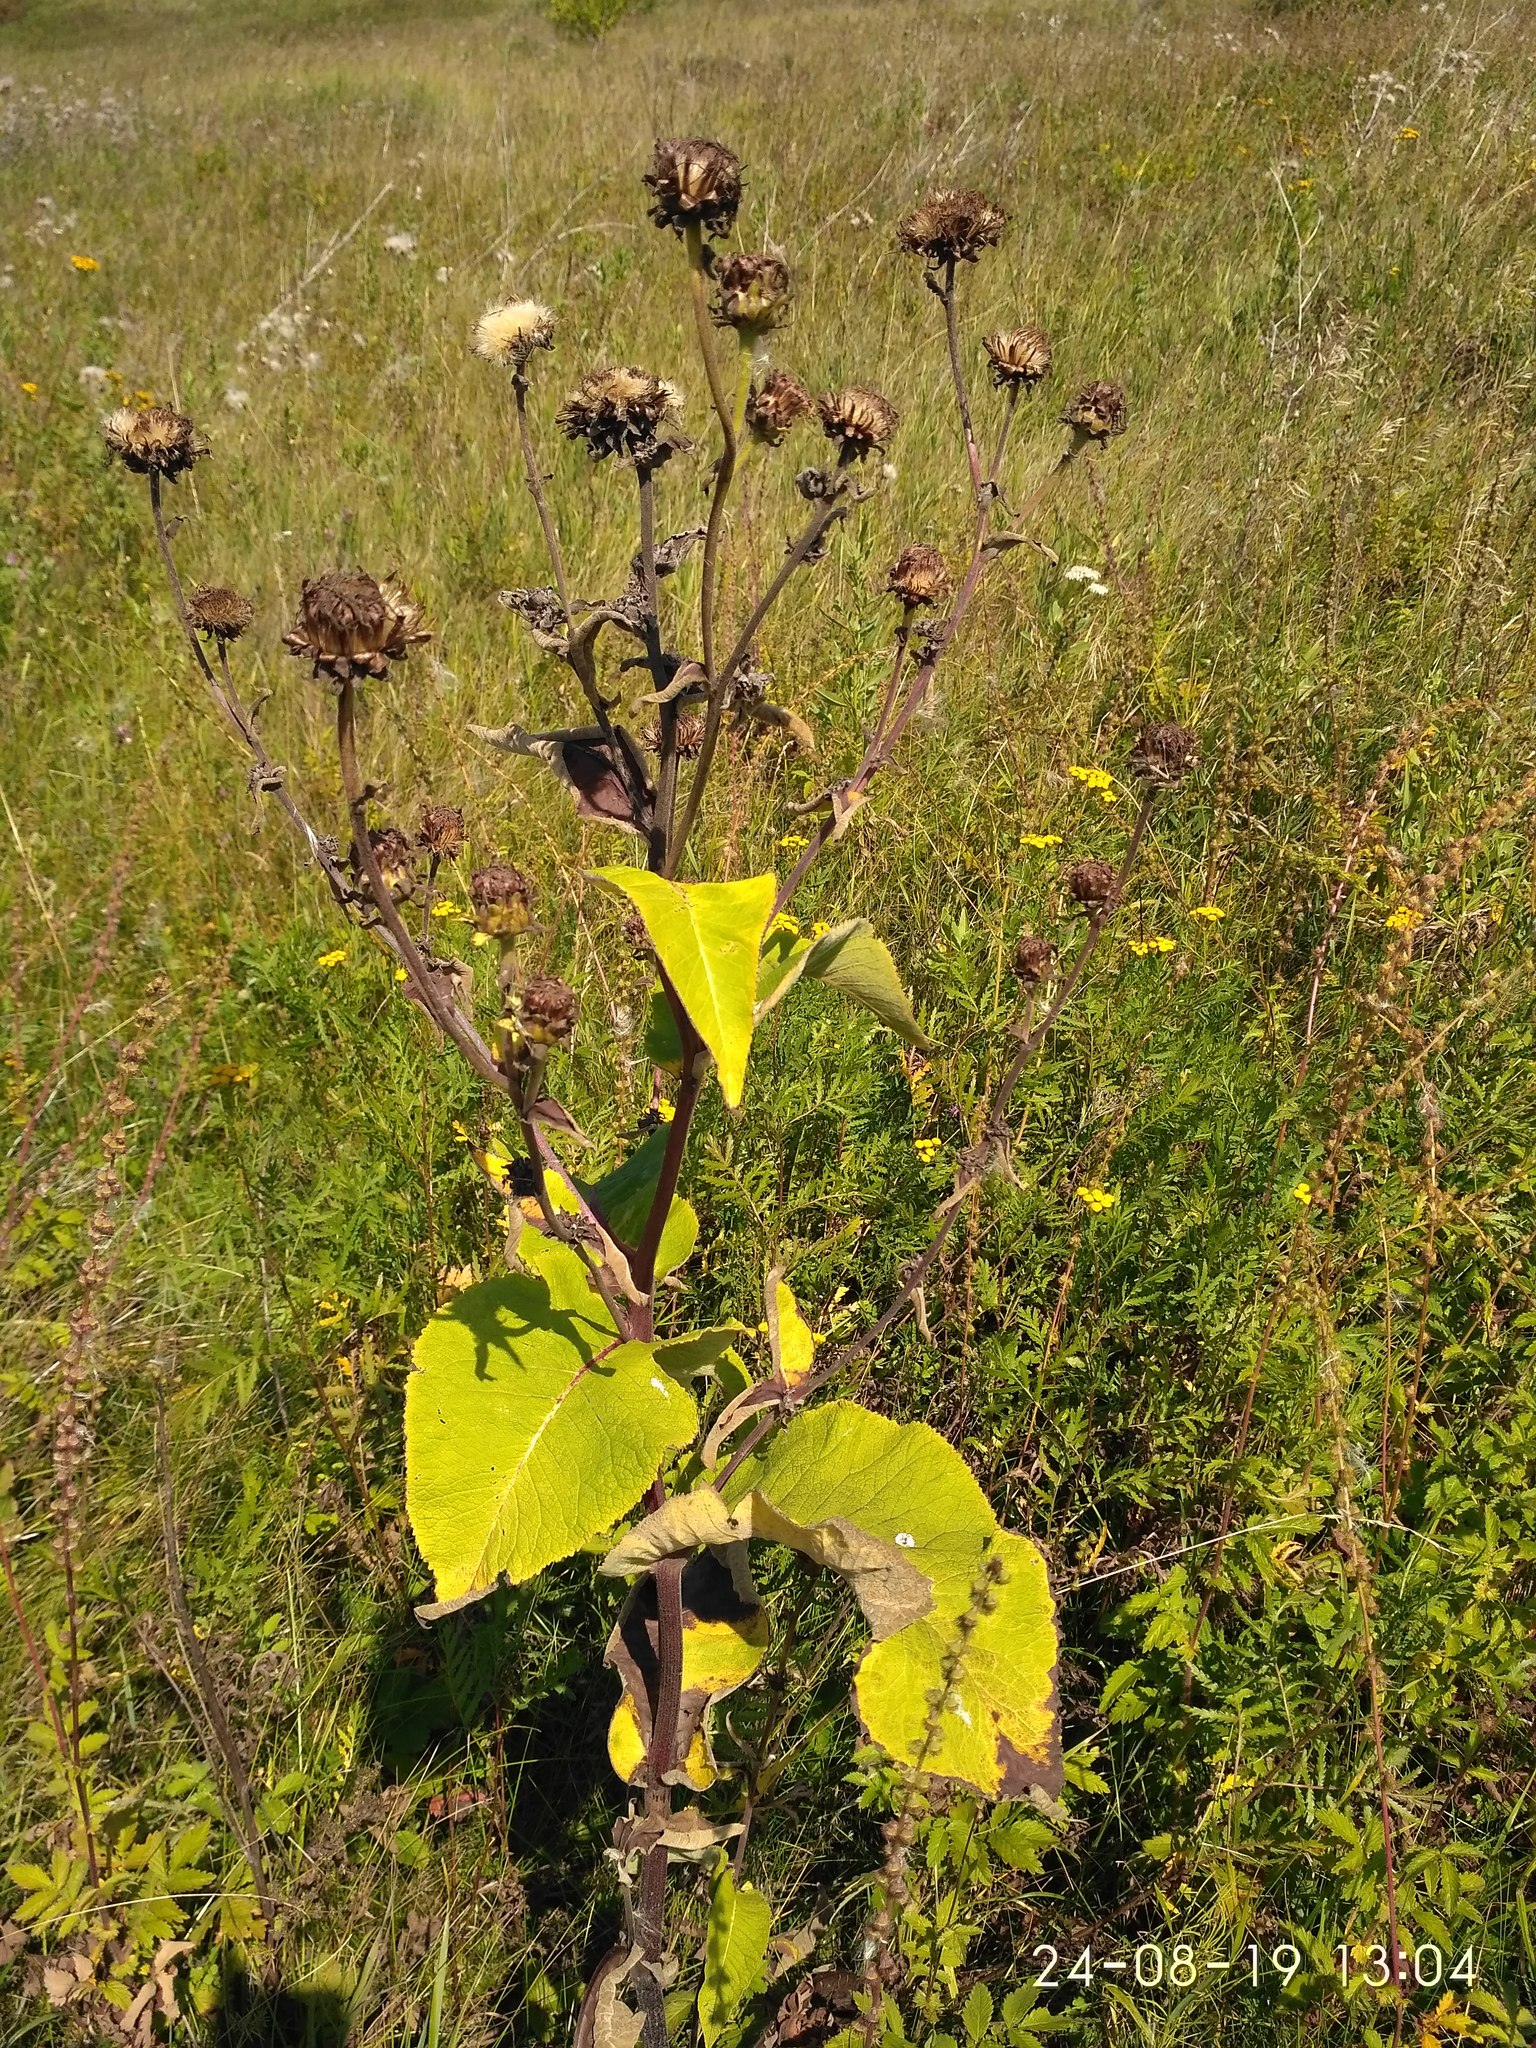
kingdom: Plantae
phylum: Tracheophyta
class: Magnoliopsida
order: Asterales
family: Asteraceae
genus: Inula
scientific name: Inula helenium
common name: Elecampane
